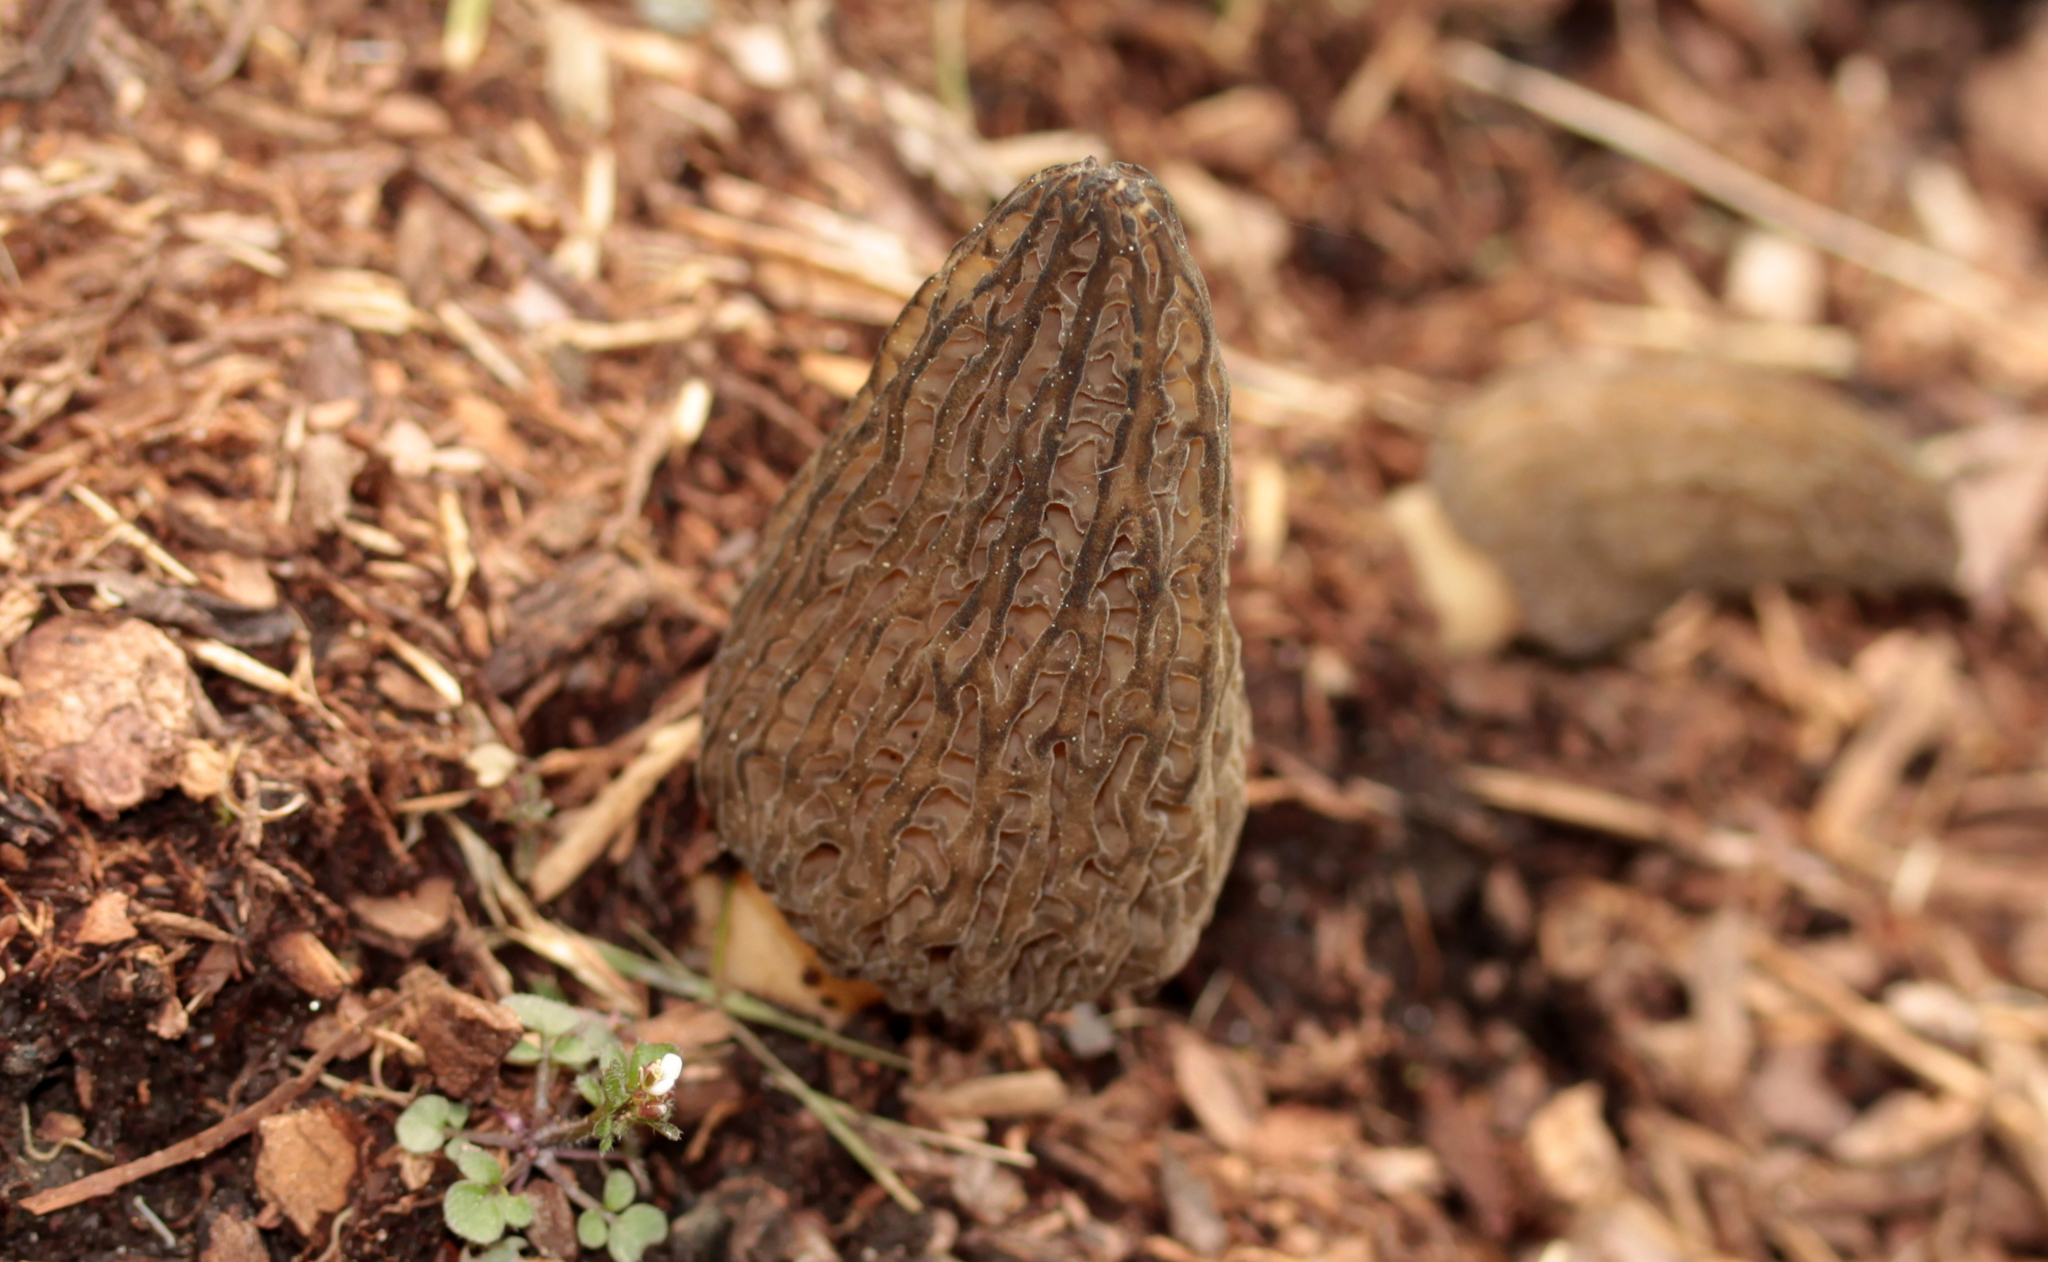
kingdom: Fungi
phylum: Ascomycota
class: Pezizomycetes
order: Pezizales
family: Morchellaceae
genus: Morchella
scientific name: Morchella angusticeps
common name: Black morel
